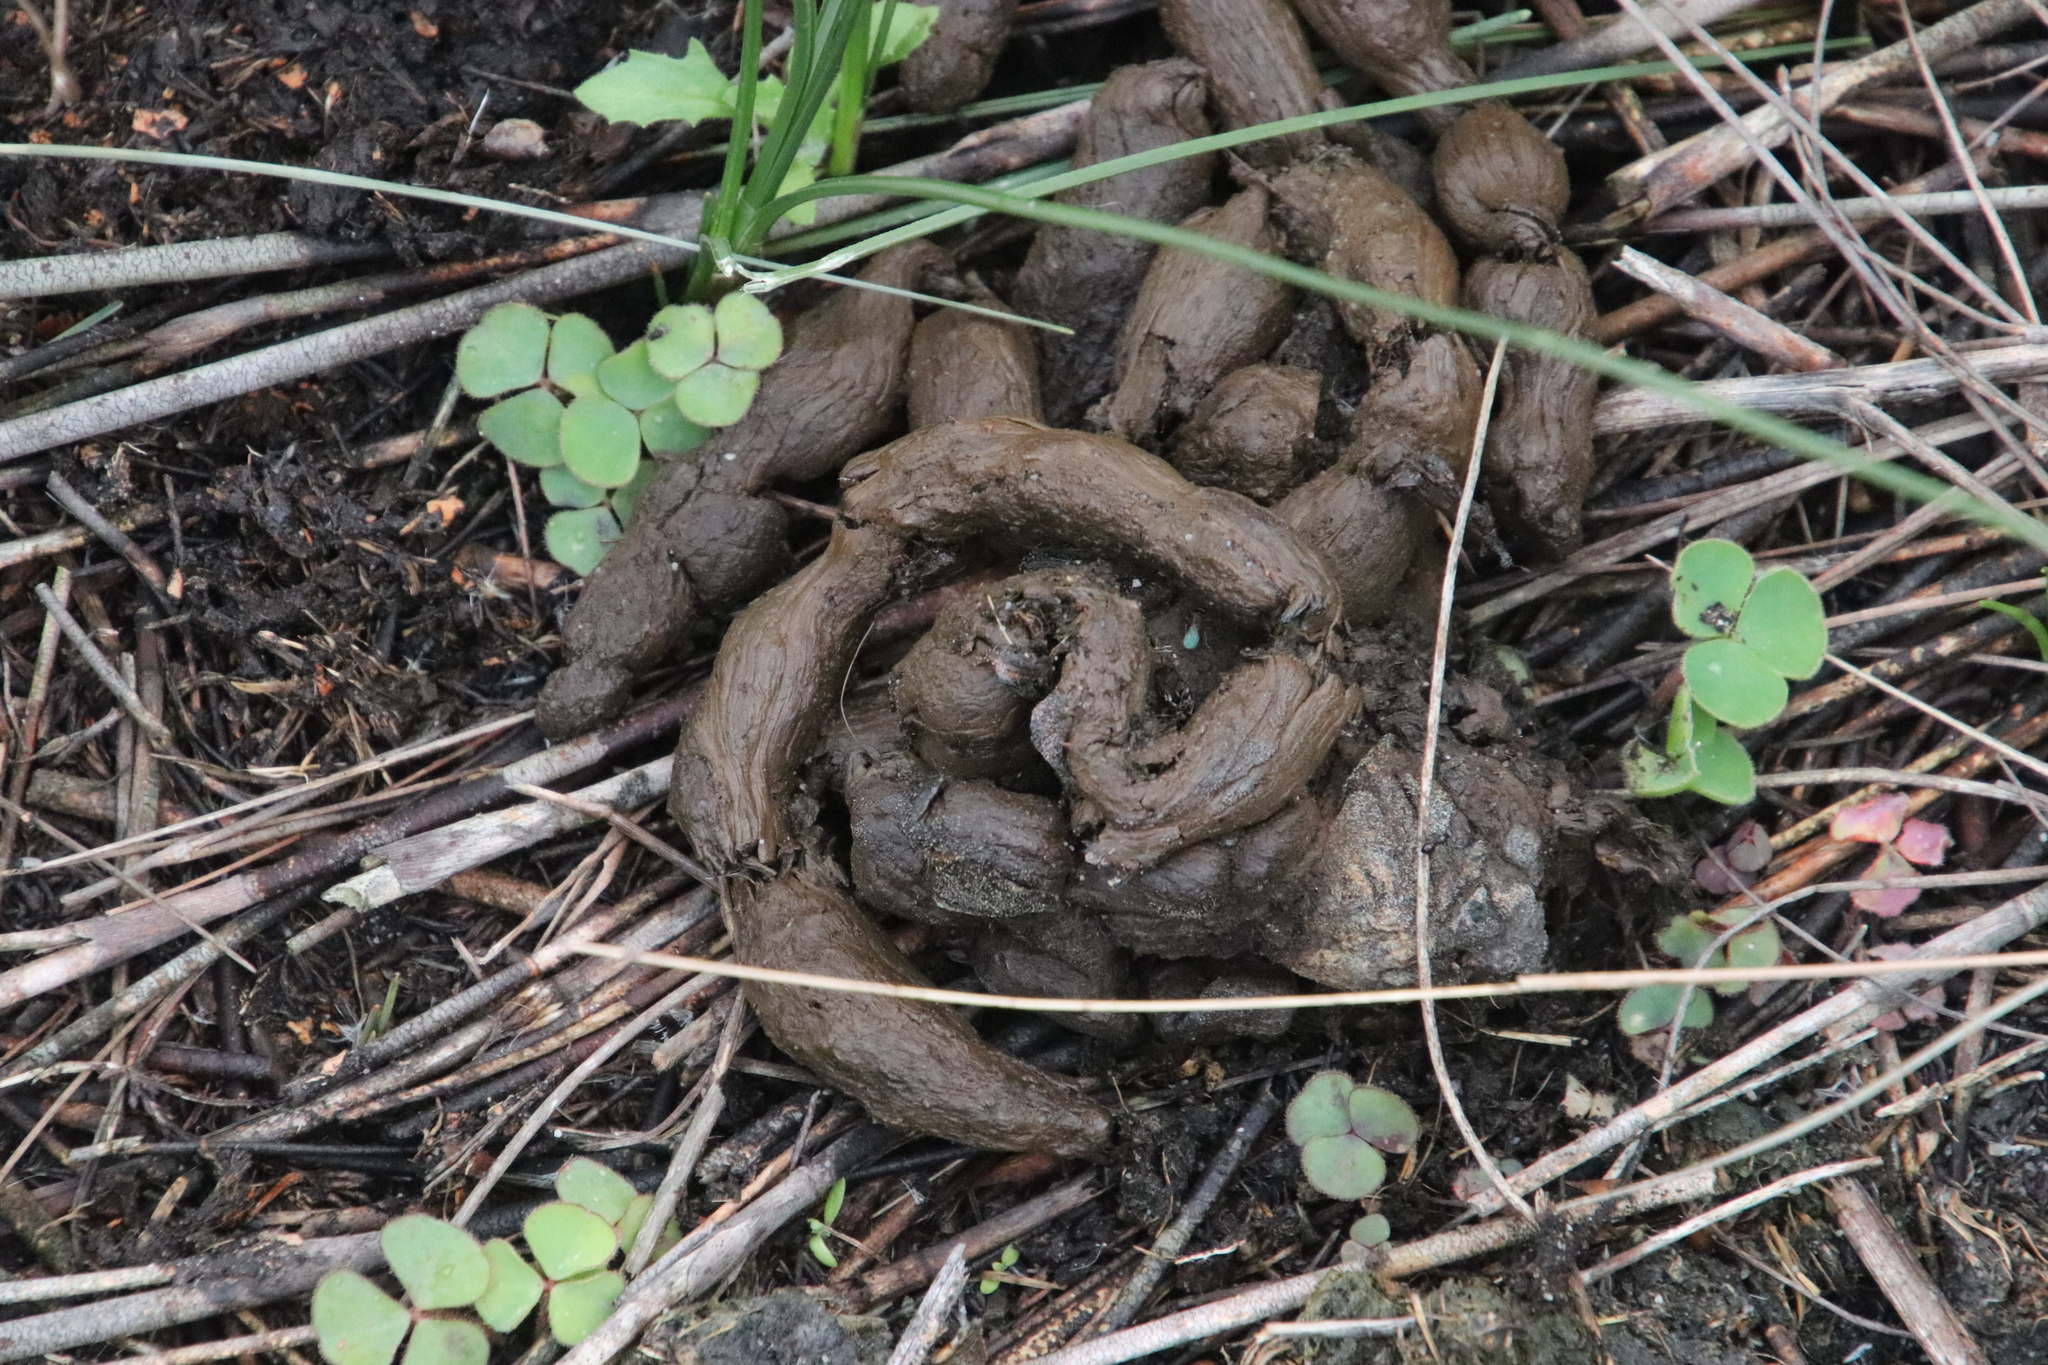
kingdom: Animalia
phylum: Chordata
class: Mammalia
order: Rodentia
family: Hystricidae
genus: Hystrix
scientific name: Hystrix africaeaustralis
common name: Cape porcupine
